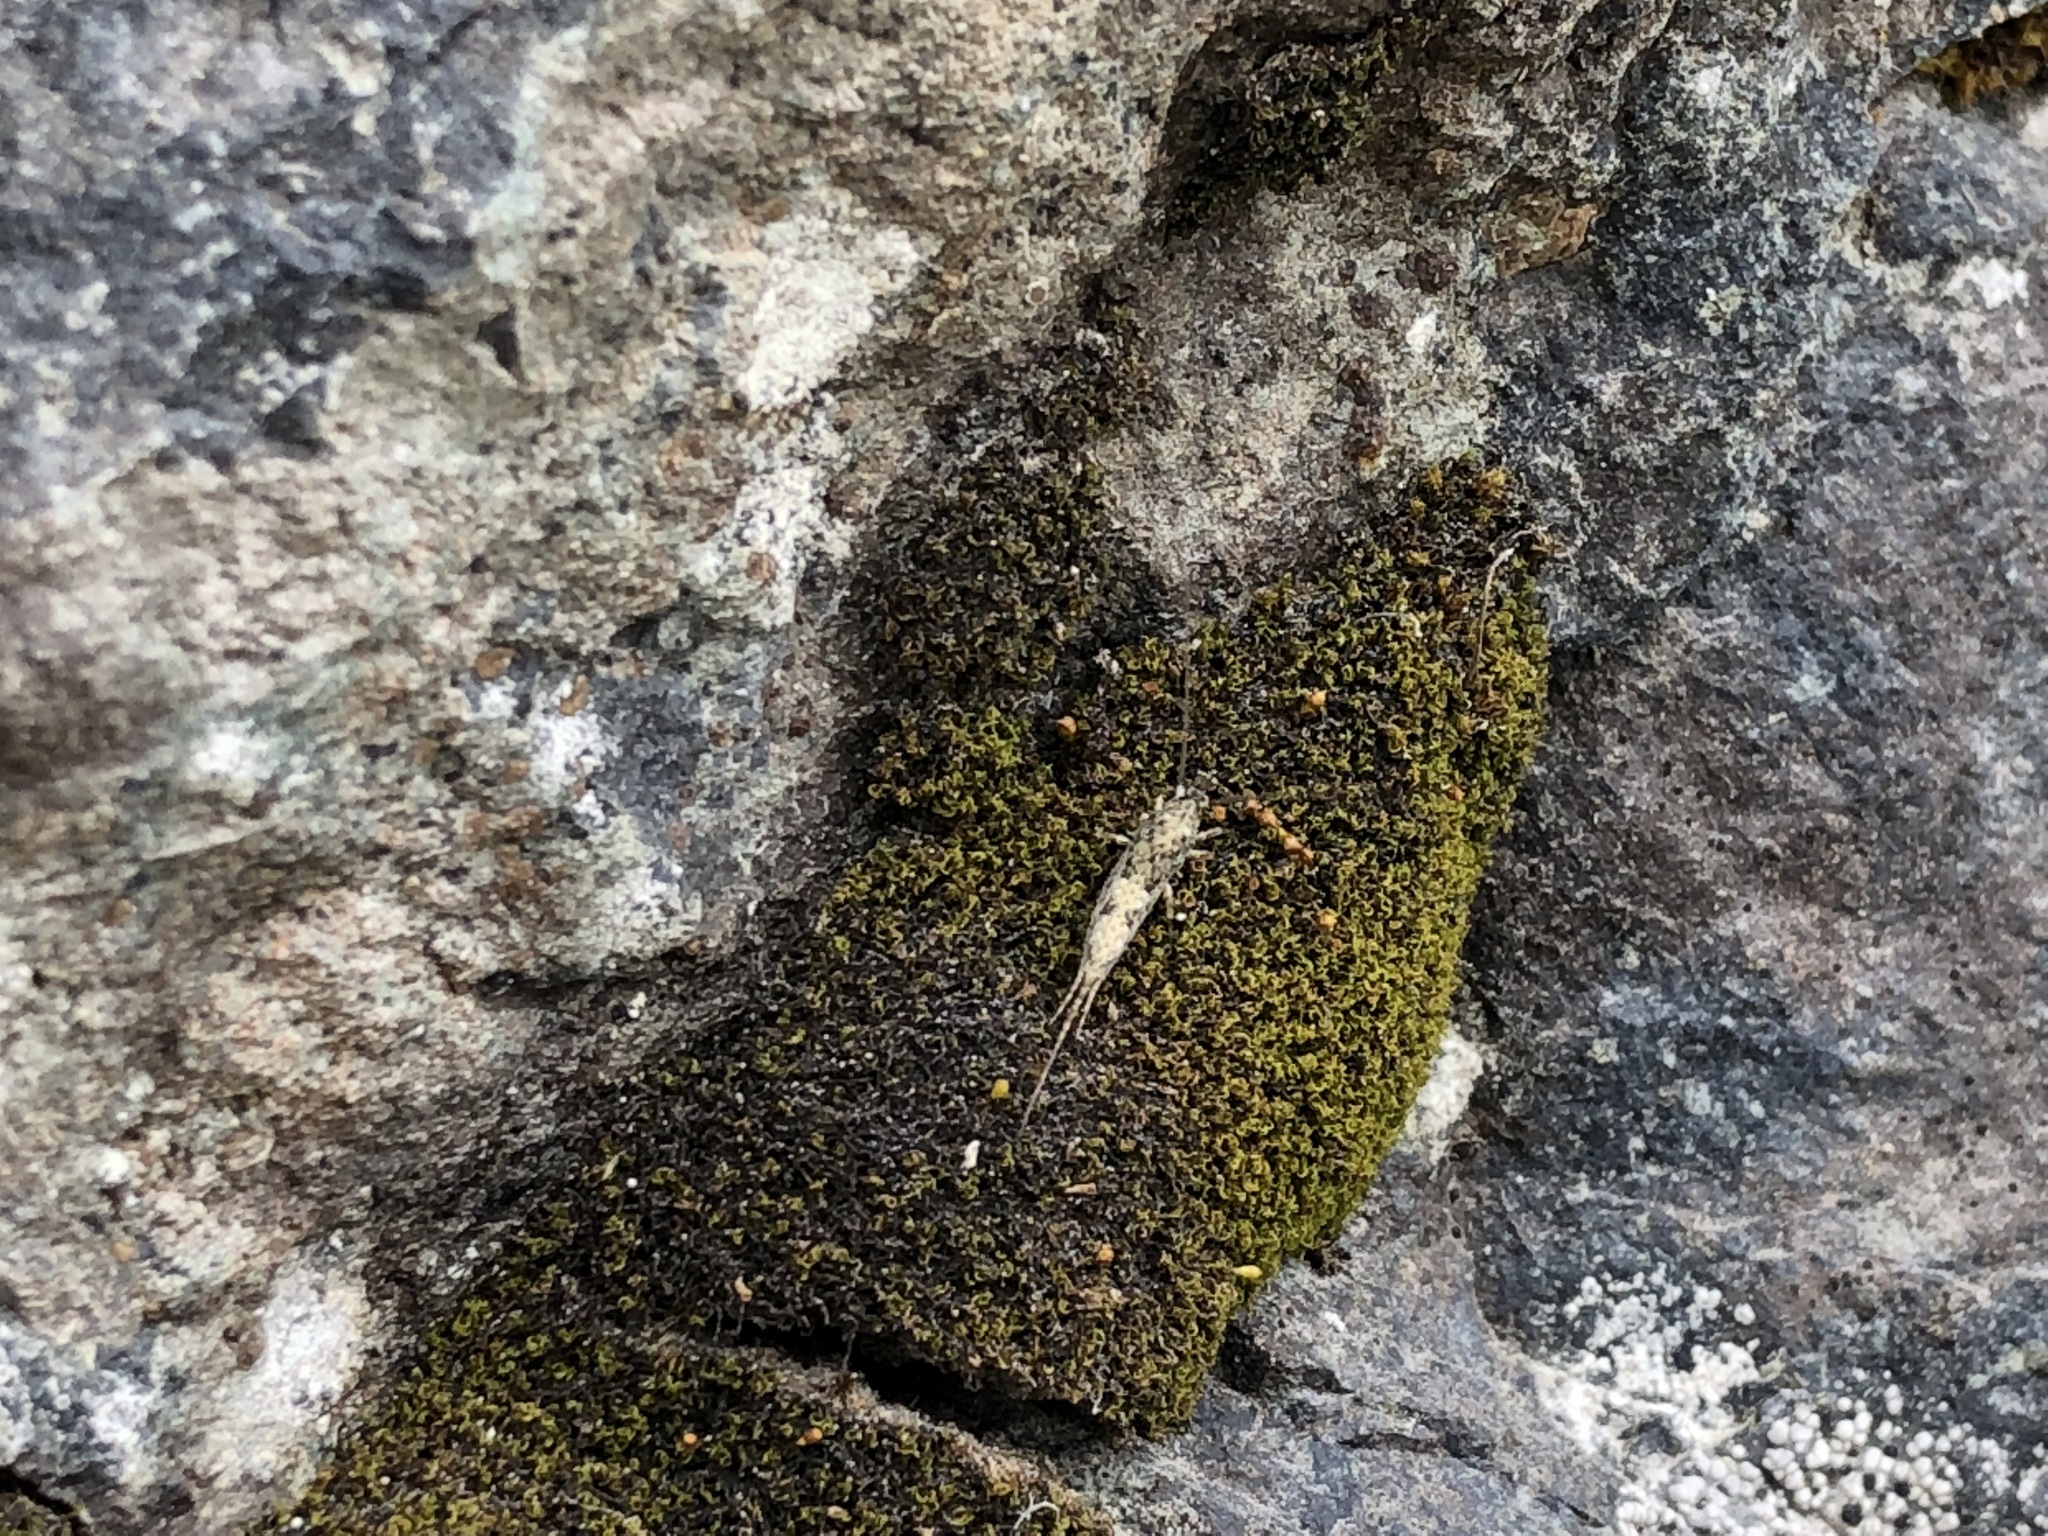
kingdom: Animalia
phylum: Arthropoda
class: Insecta
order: Archaeognatha
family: Machilidae
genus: Petridiobius
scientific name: Petridiobius arcticus
